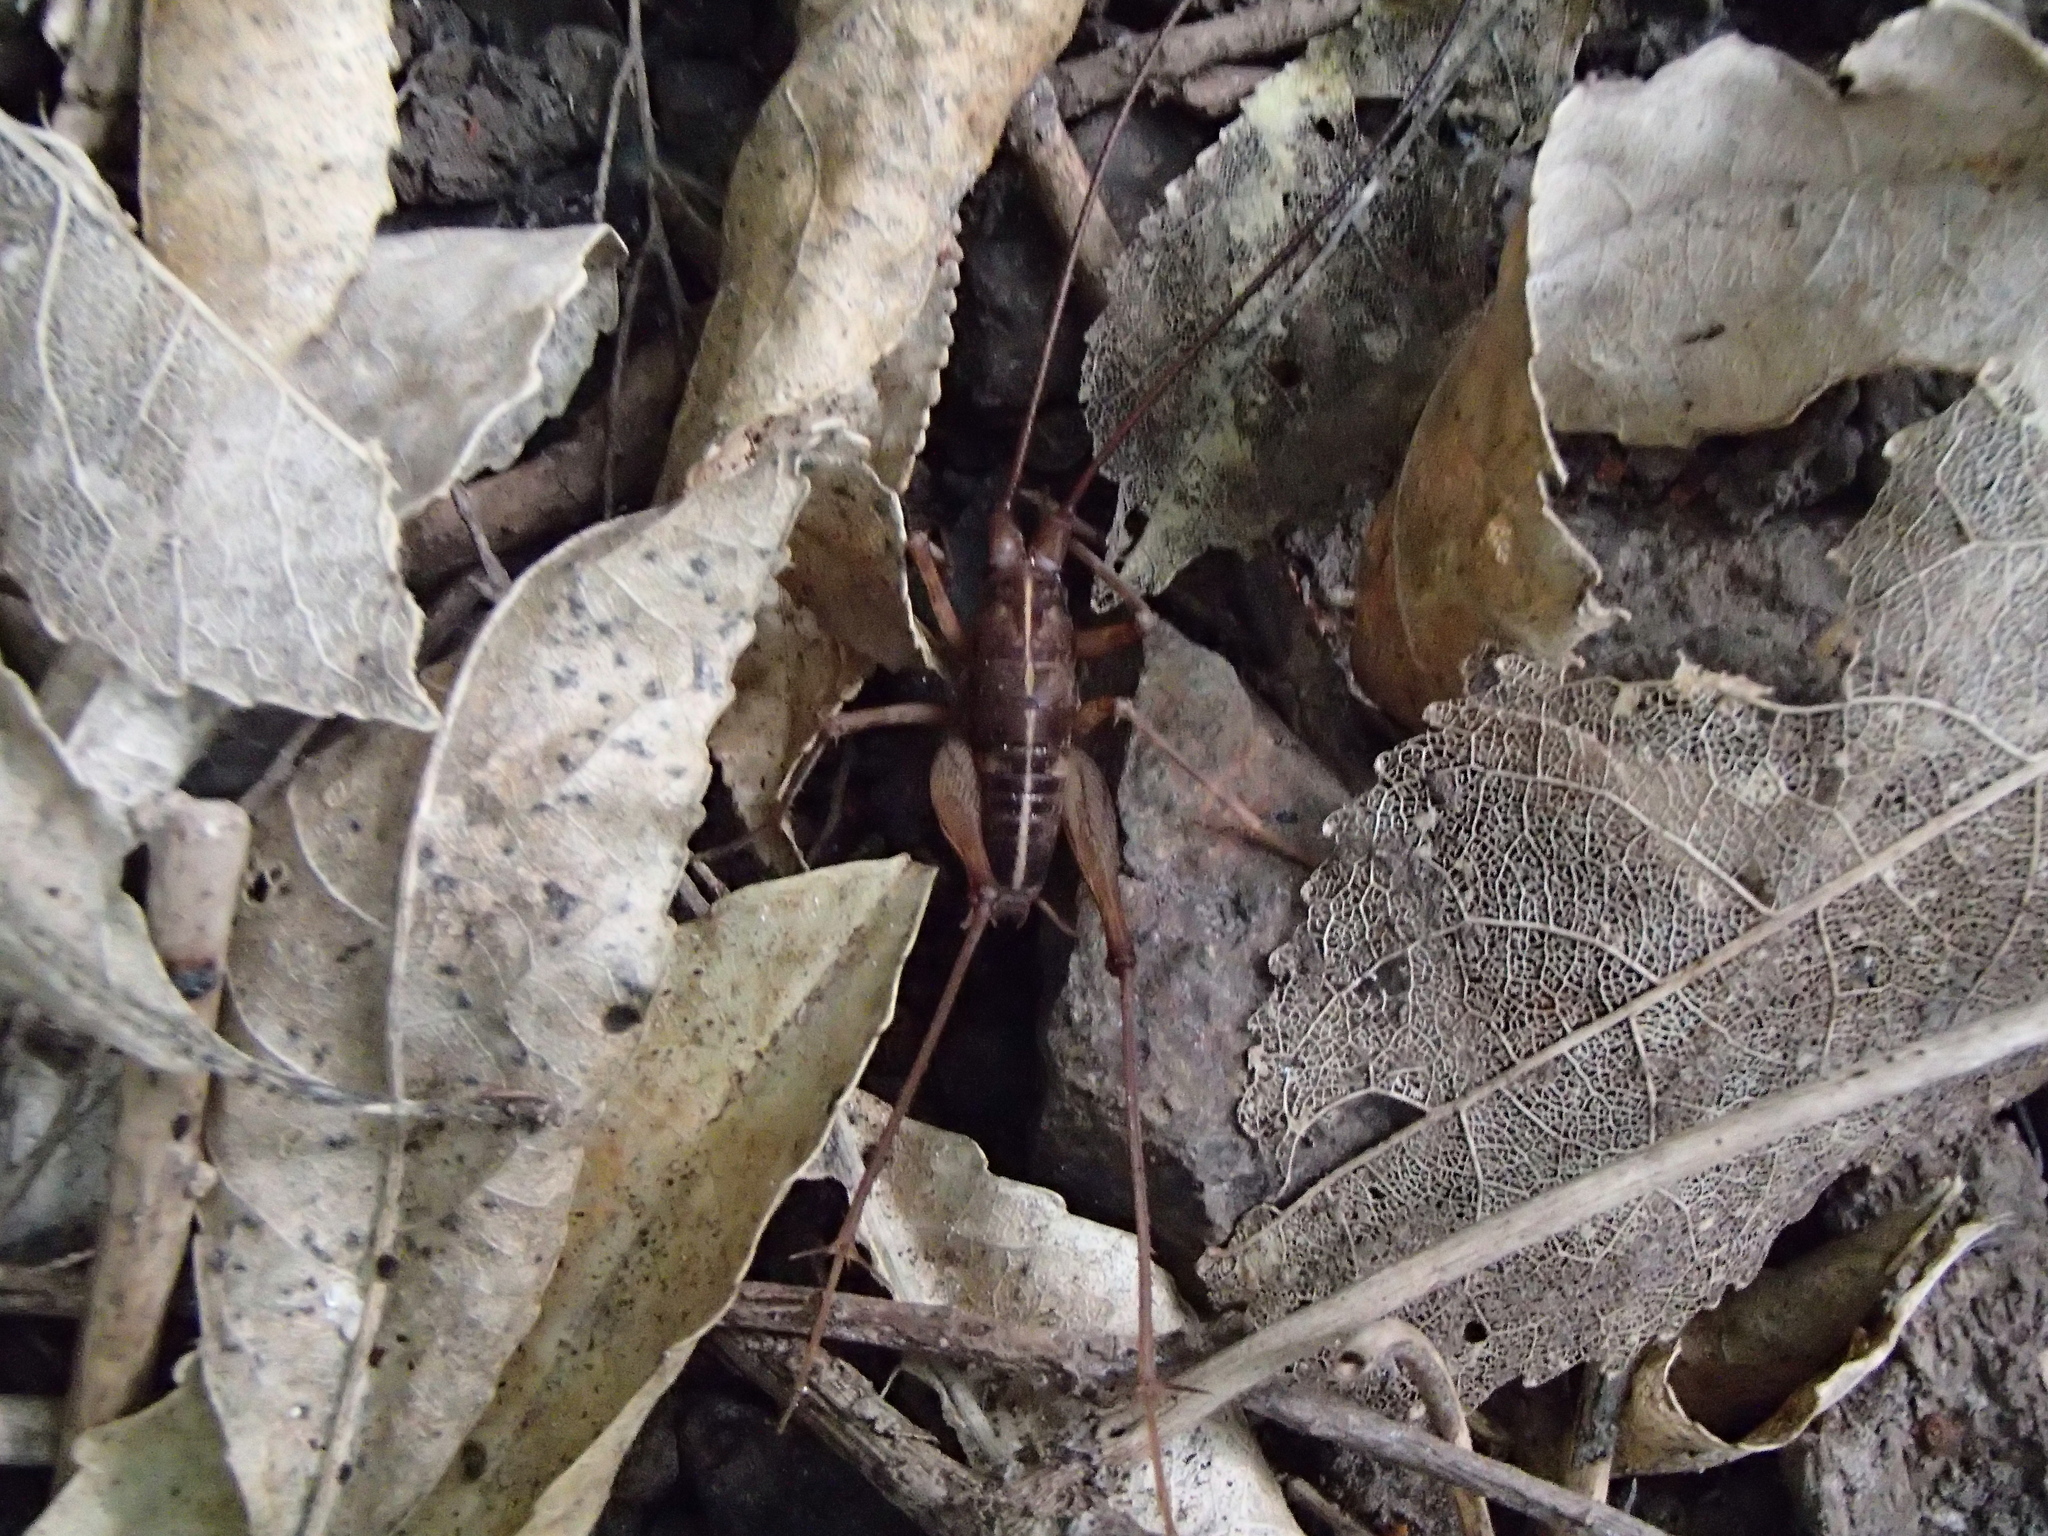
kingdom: Animalia
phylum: Arthropoda
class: Insecta
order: Orthoptera
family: Rhaphidophoridae
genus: Pleioplectron
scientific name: Pleioplectron simplex
